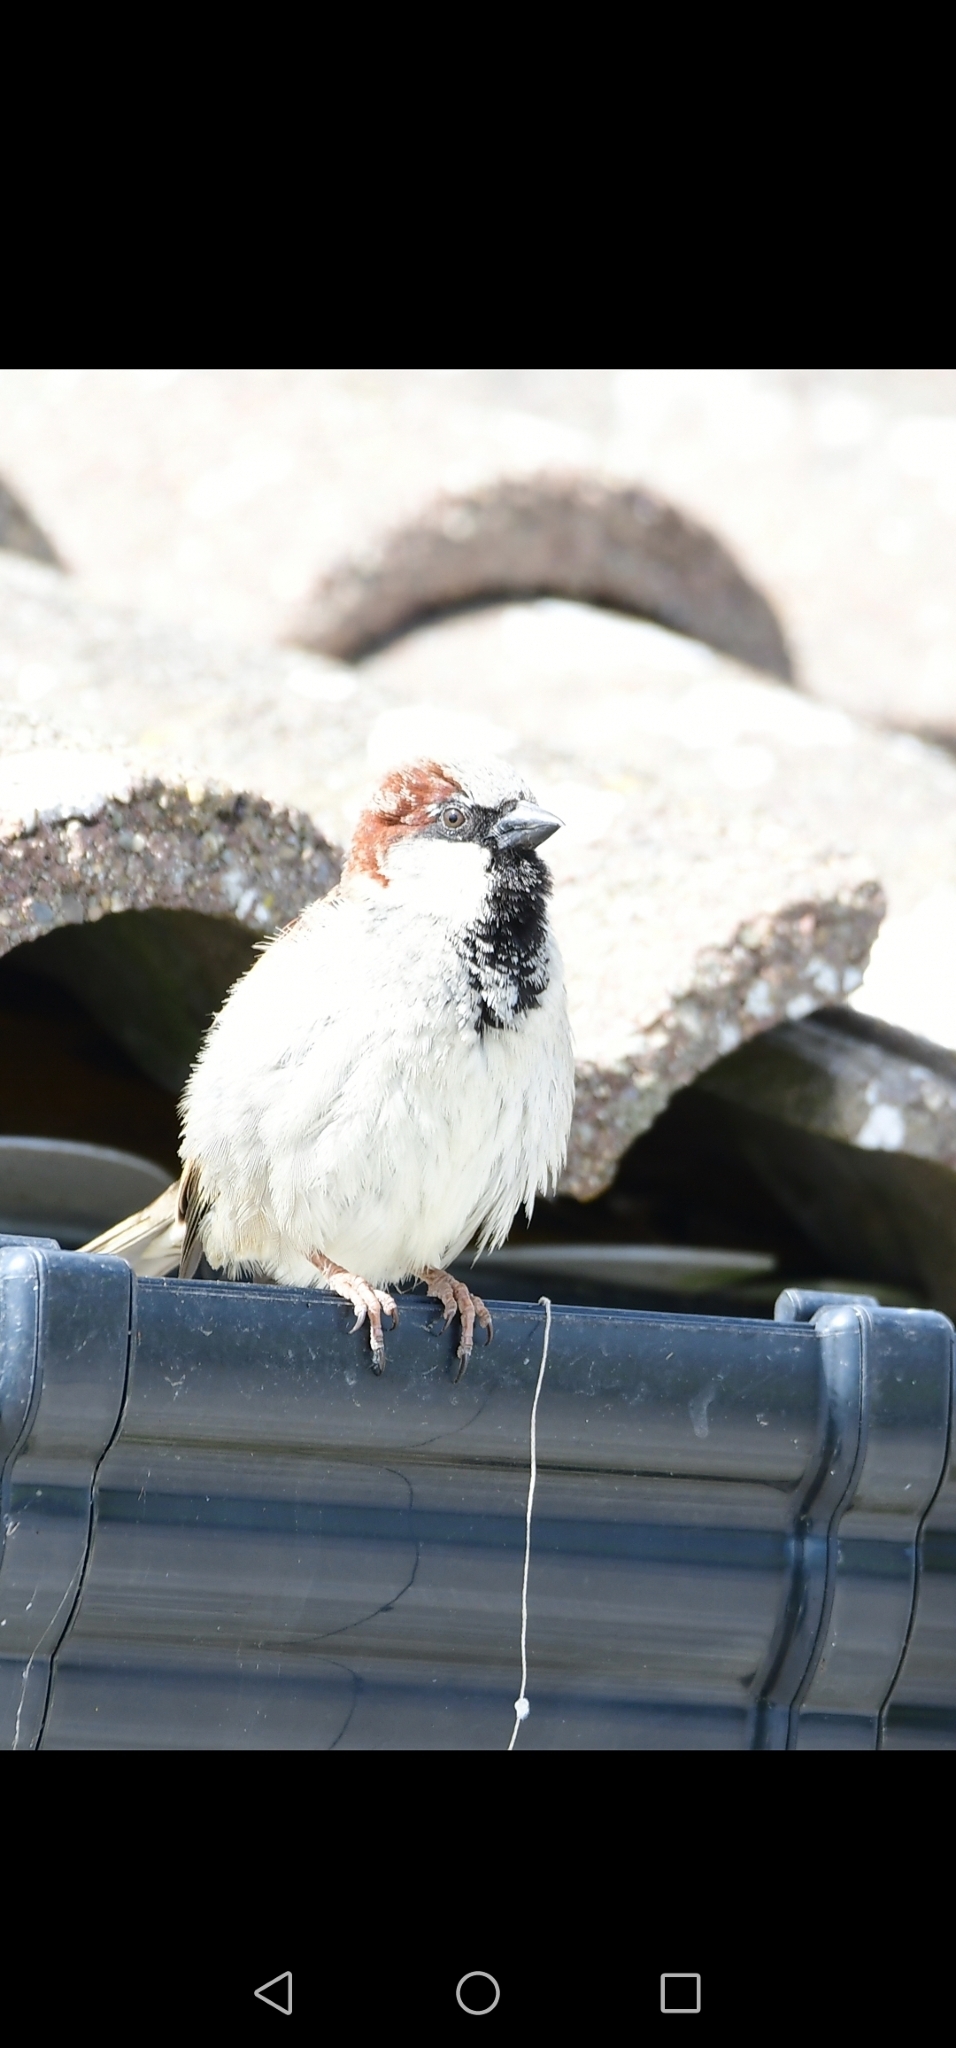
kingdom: Animalia
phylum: Chordata
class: Aves
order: Passeriformes
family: Passeridae
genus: Passer
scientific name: Passer domesticus
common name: House sparrow
